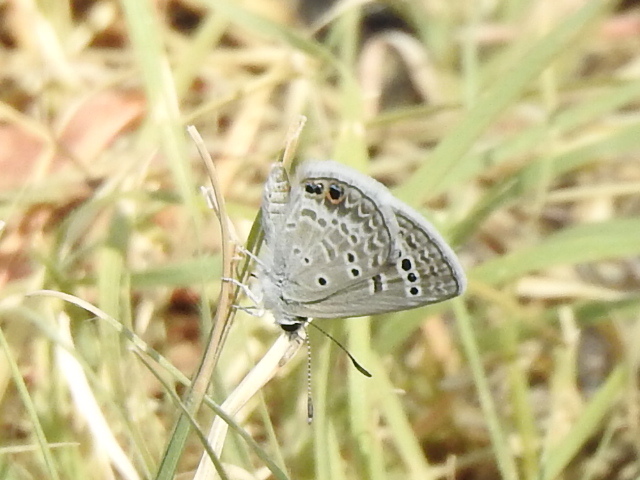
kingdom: Animalia
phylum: Arthropoda
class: Insecta
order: Lepidoptera
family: Lycaenidae
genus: Echinargus
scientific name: Echinargus isola
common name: Reakirt's blue
